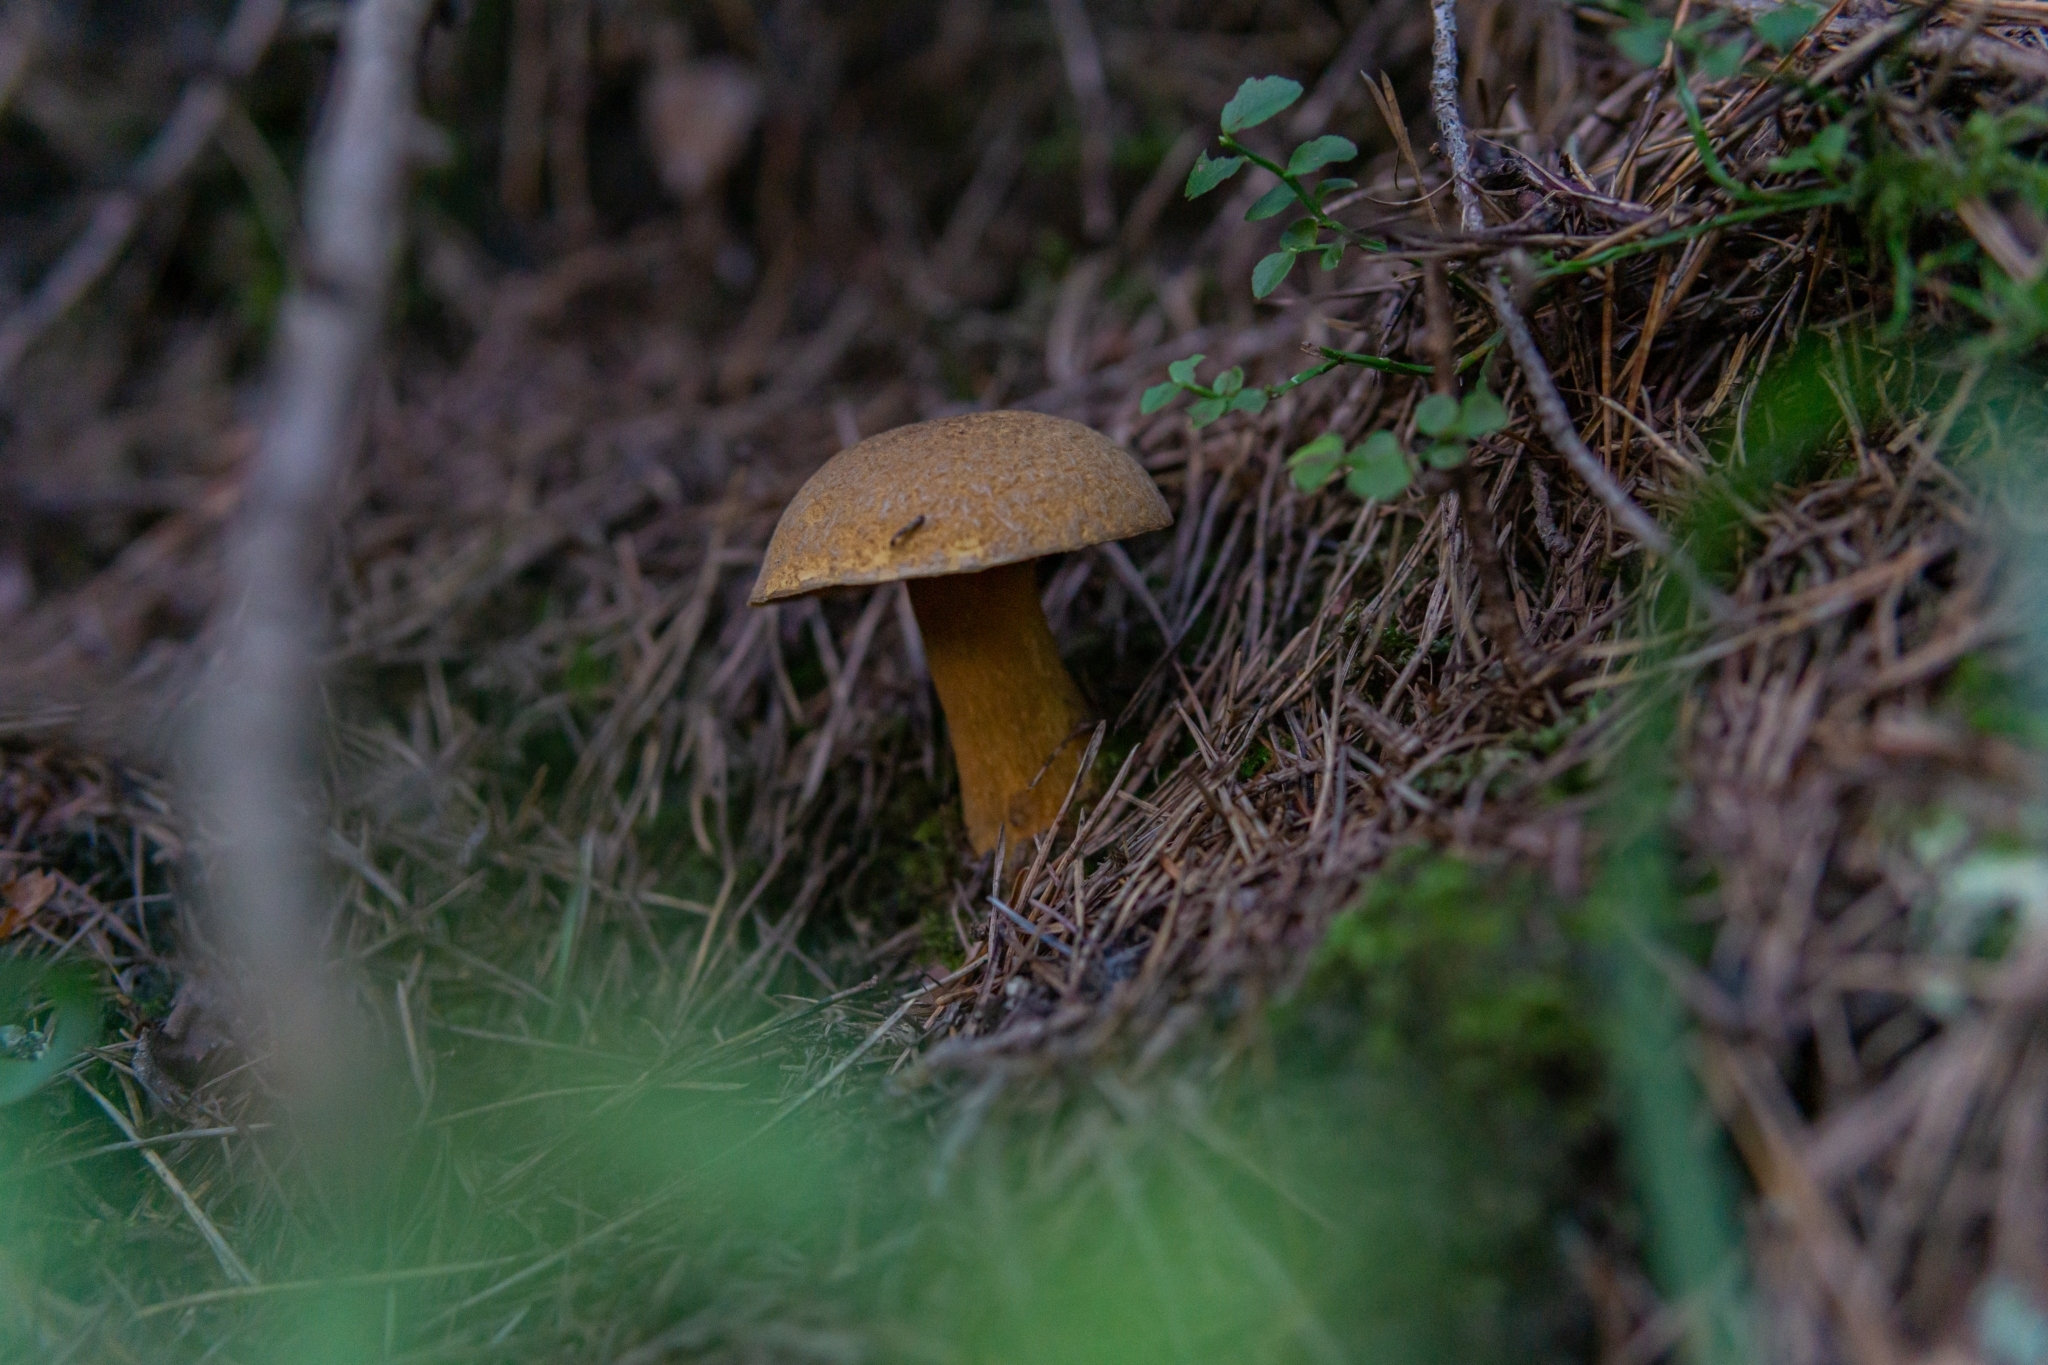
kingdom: Fungi
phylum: Basidiomycota
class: Agaricomycetes
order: Boletales
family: Suillaceae
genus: Suillus
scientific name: Suillus variegatus
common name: Velvet bolete
